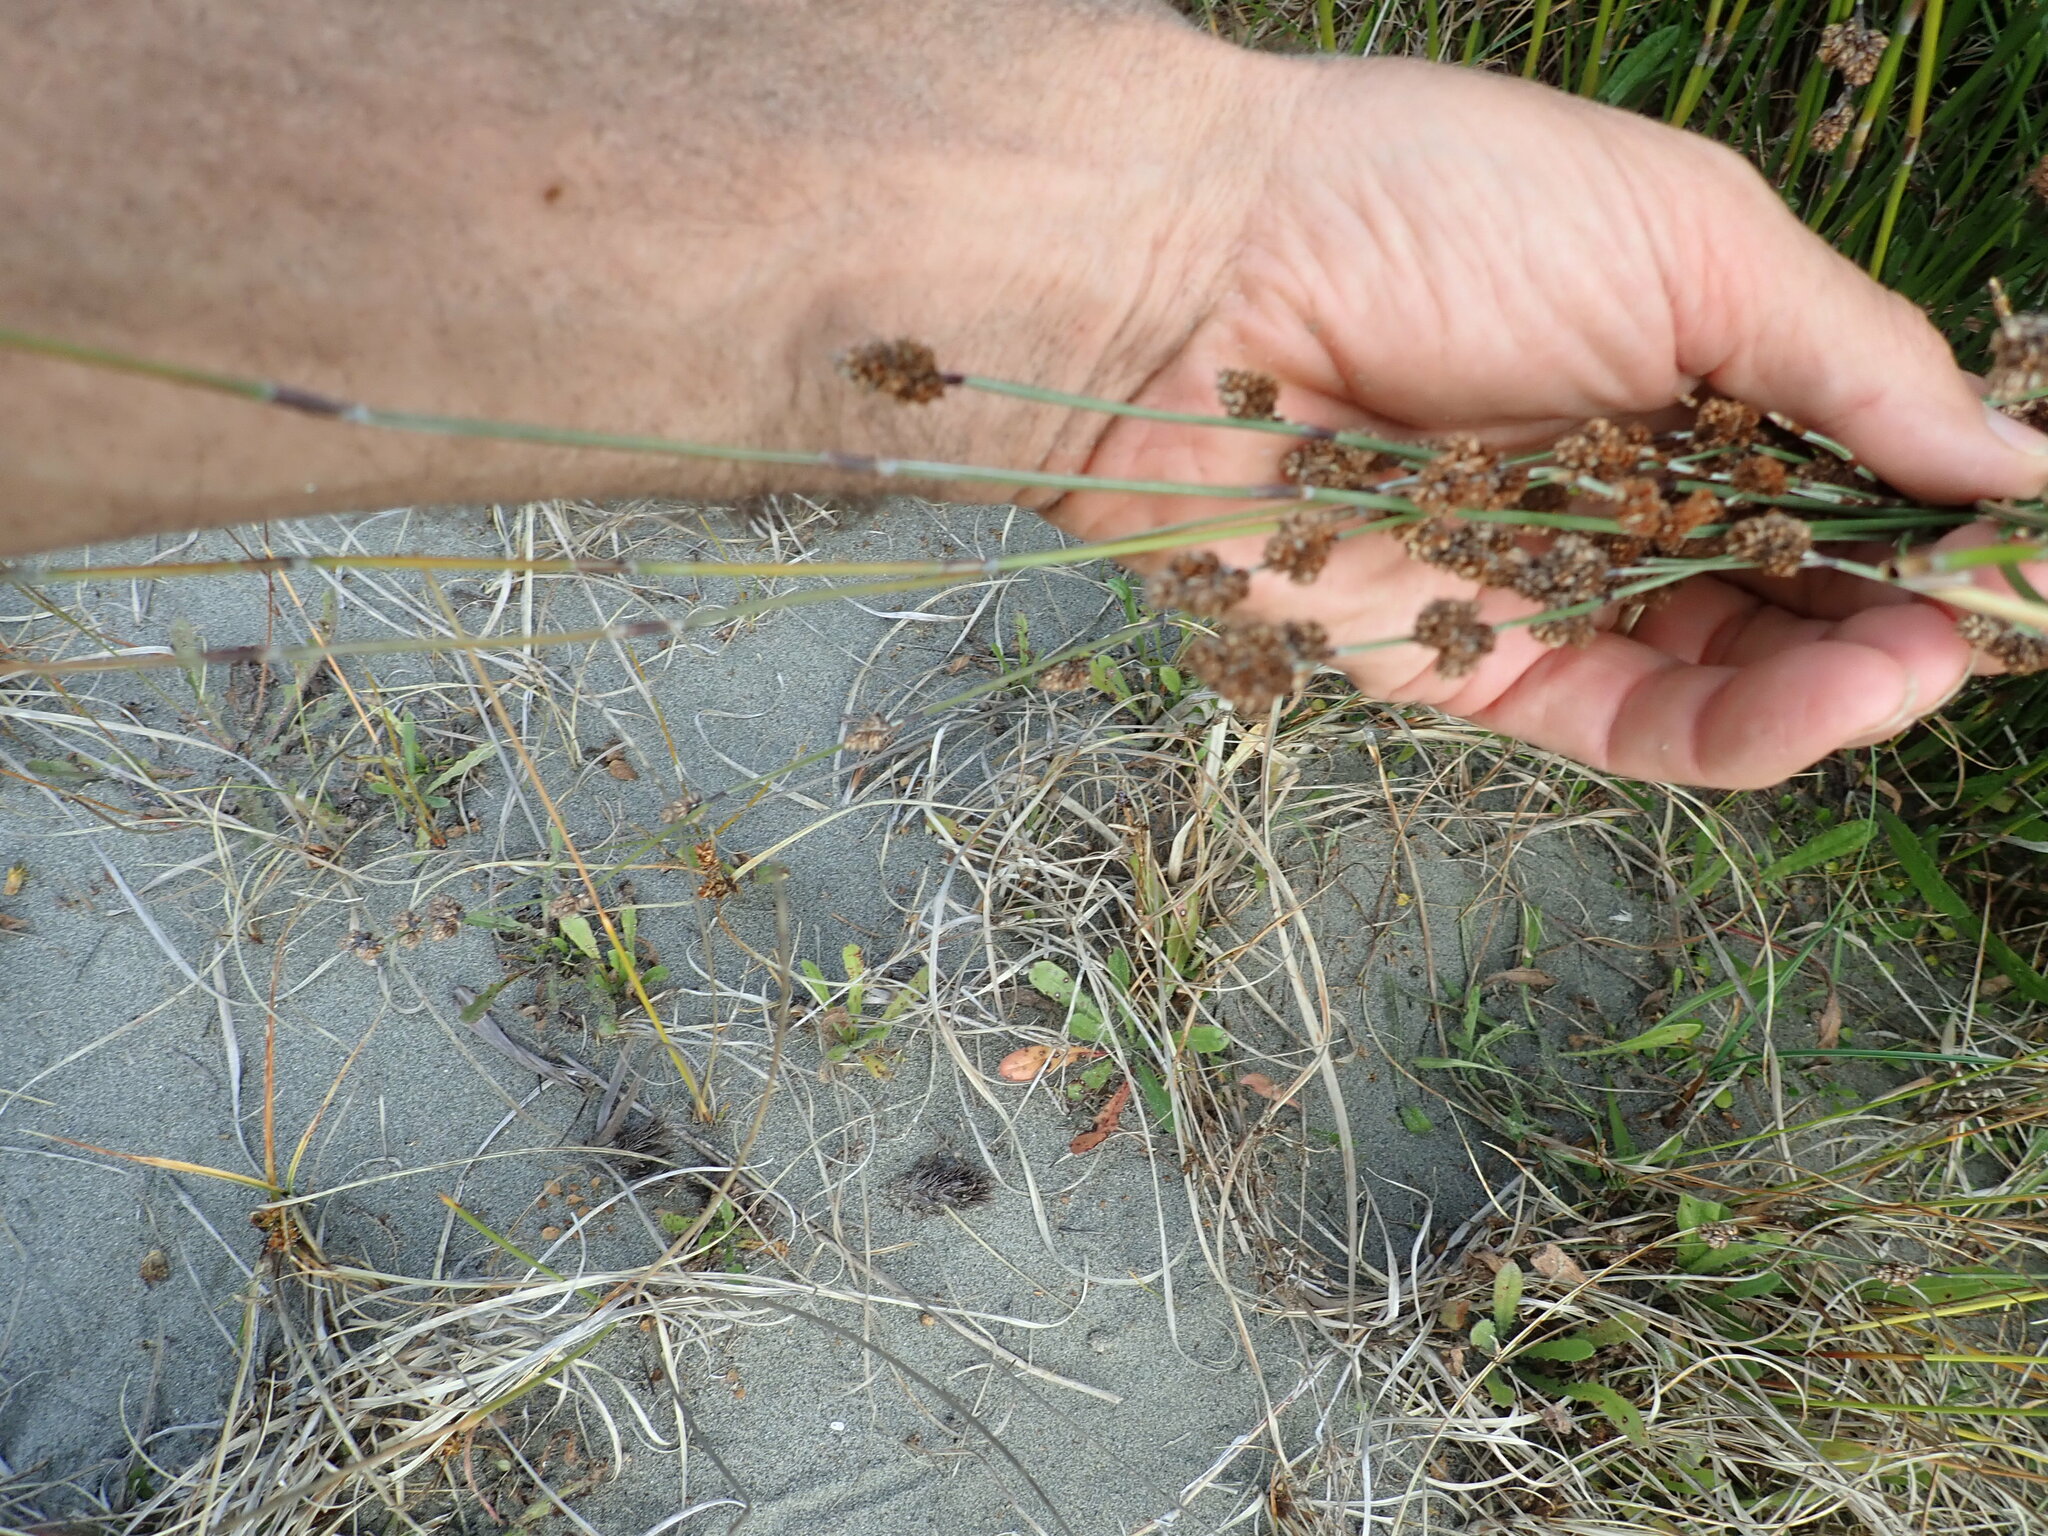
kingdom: Plantae
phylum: Tracheophyta
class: Liliopsida
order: Poales
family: Restionaceae
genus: Apodasmia
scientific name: Apodasmia similis
